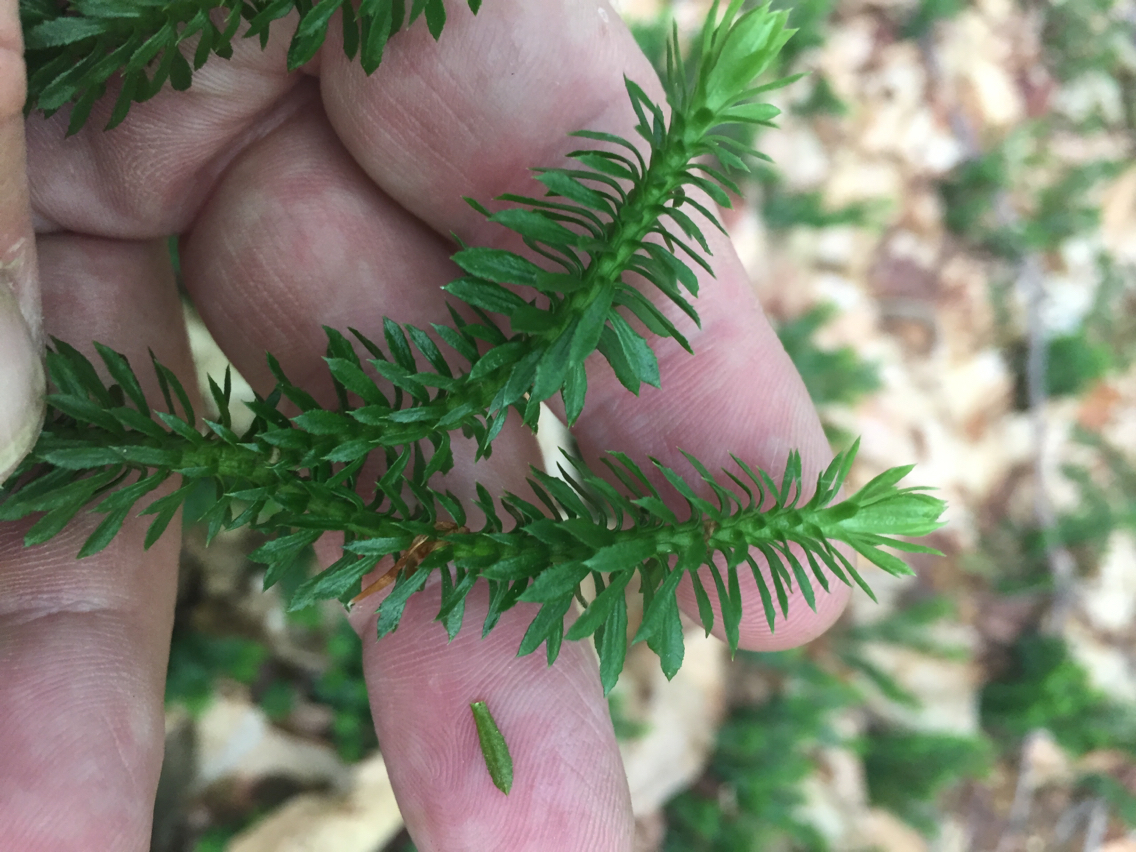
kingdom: Plantae
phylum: Tracheophyta
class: Lycopodiopsida
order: Lycopodiales
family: Lycopodiaceae
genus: Spinulum
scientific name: Spinulum annotinum
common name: Interrupted club-moss
